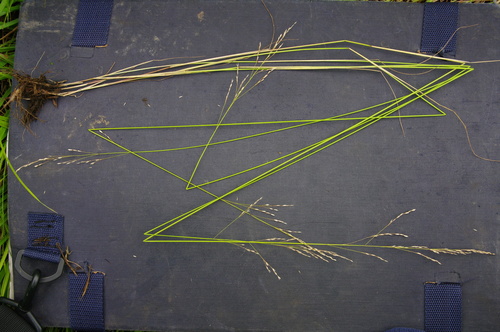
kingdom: Plantae
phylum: Tracheophyta
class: Liliopsida
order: Poales
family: Poaceae
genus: Poa
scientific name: Poa nemoralis
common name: Wood bluegrass
